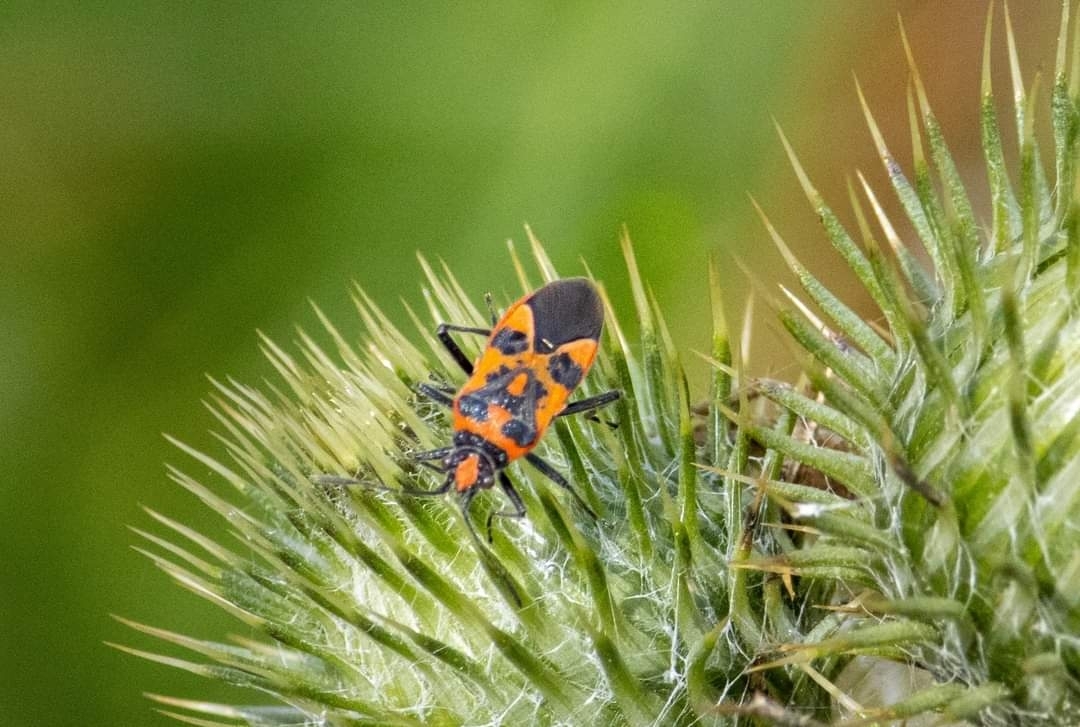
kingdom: Animalia
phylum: Arthropoda
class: Insecta
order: Hemiptera
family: Rhopalidae
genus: Corizus
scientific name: Corizus hyoscyami
